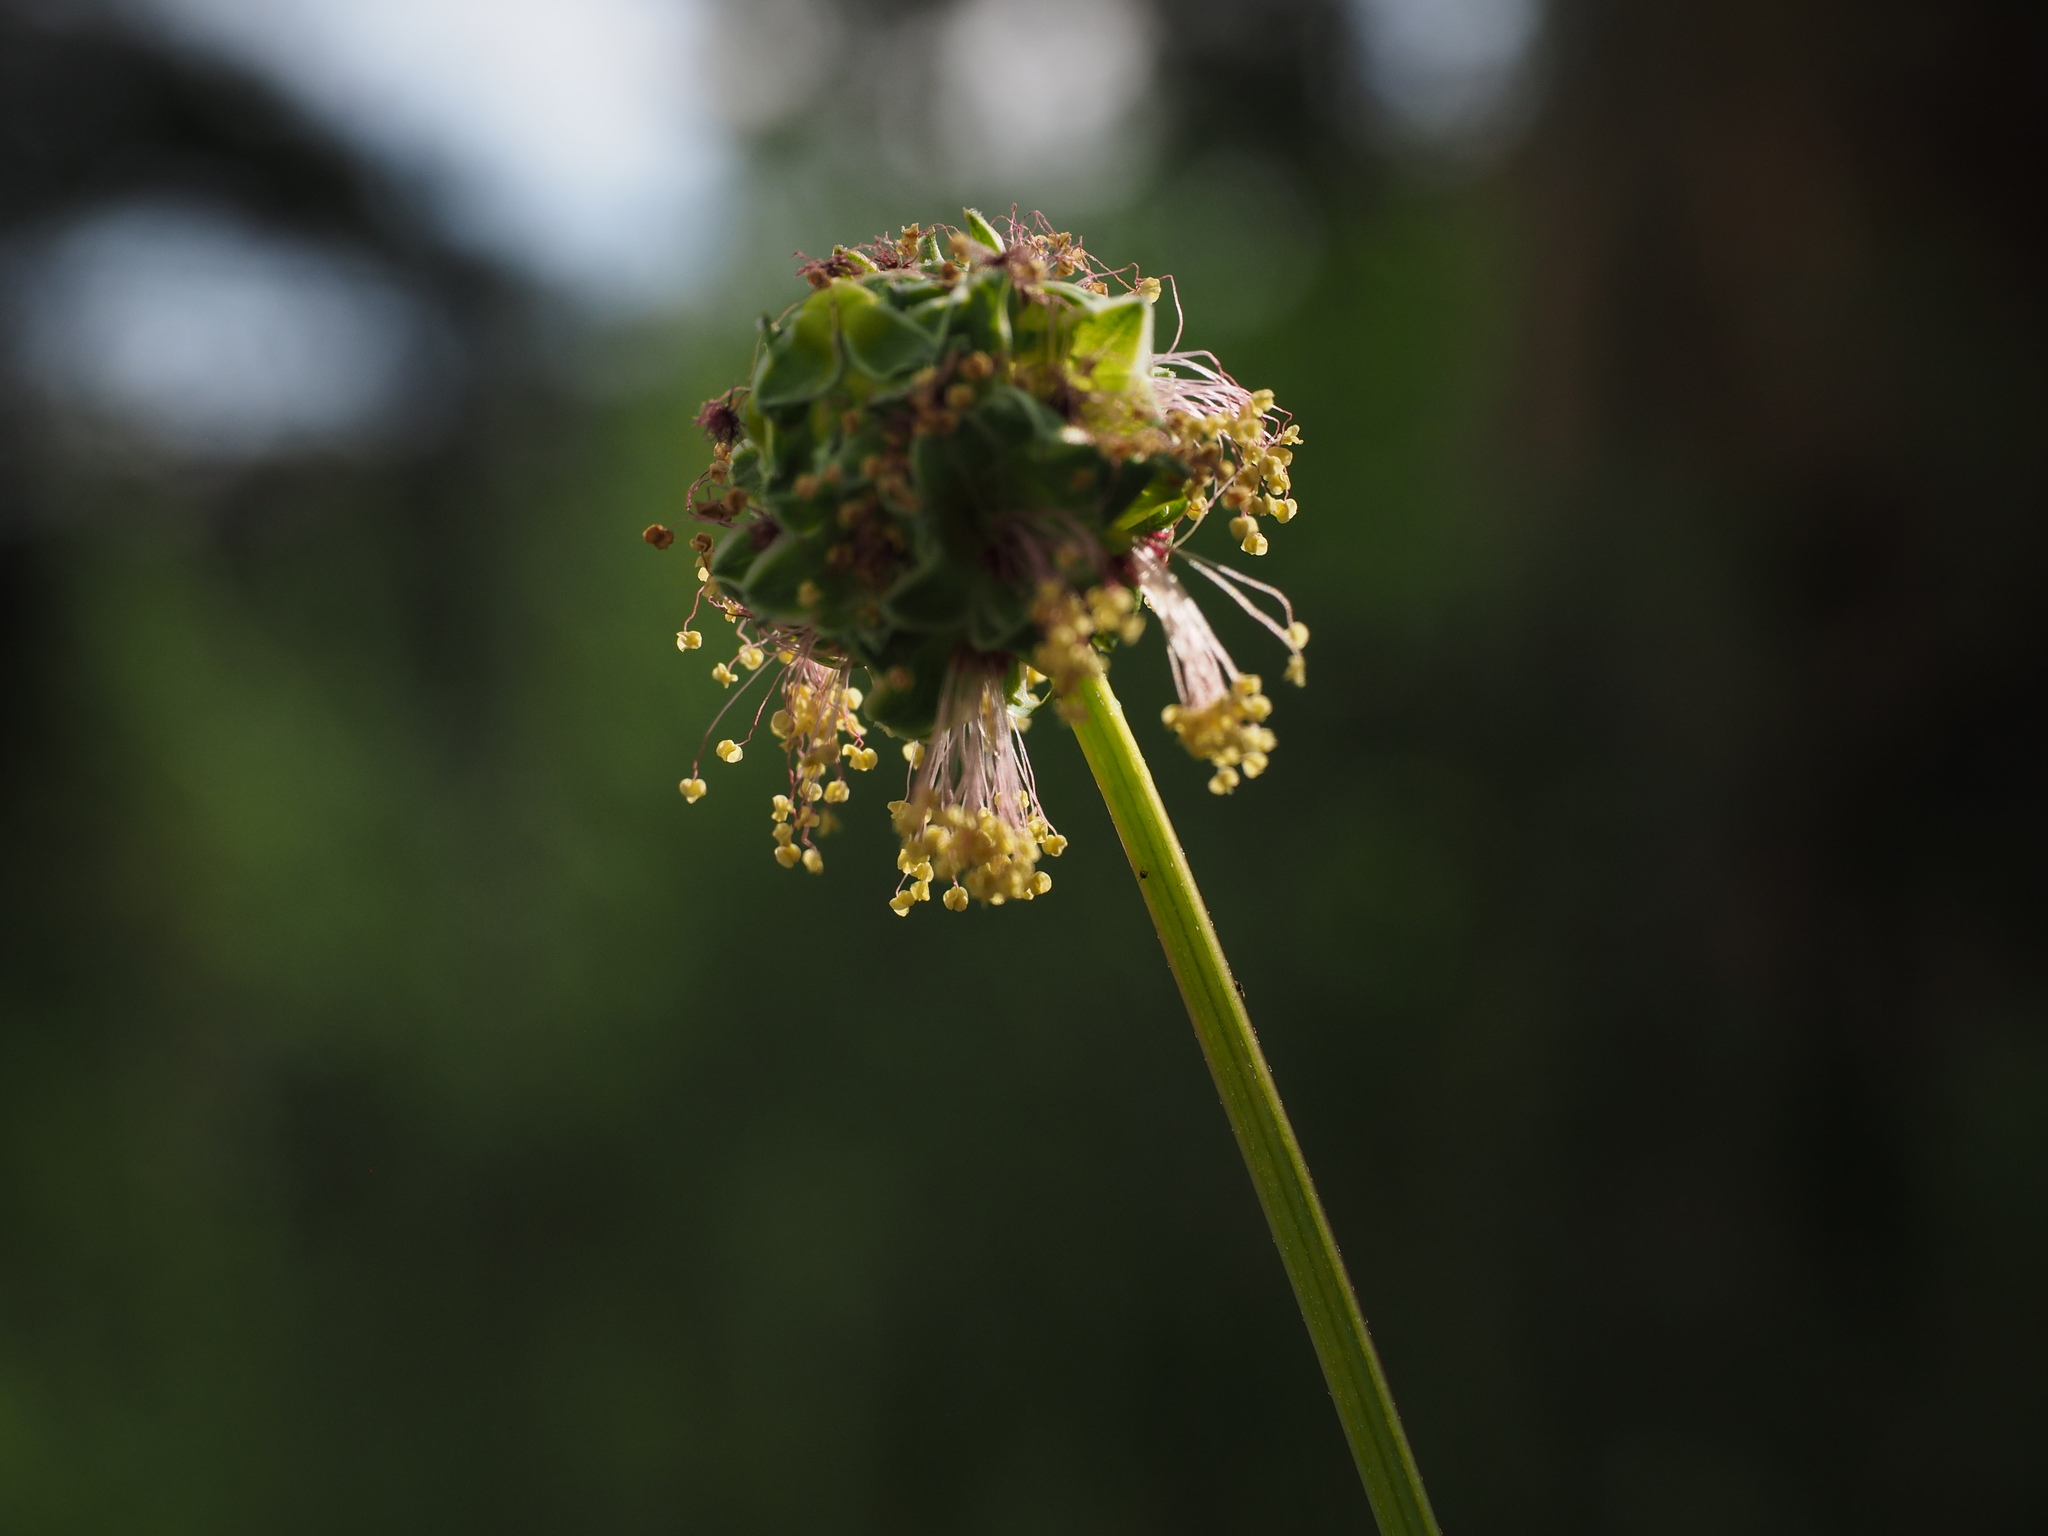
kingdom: Plantae
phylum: Tracheophyta
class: Magnoliopsida
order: Rosales
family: Rosaceae
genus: Poterium
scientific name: Poterium sanguisorba
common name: Salad burnet
